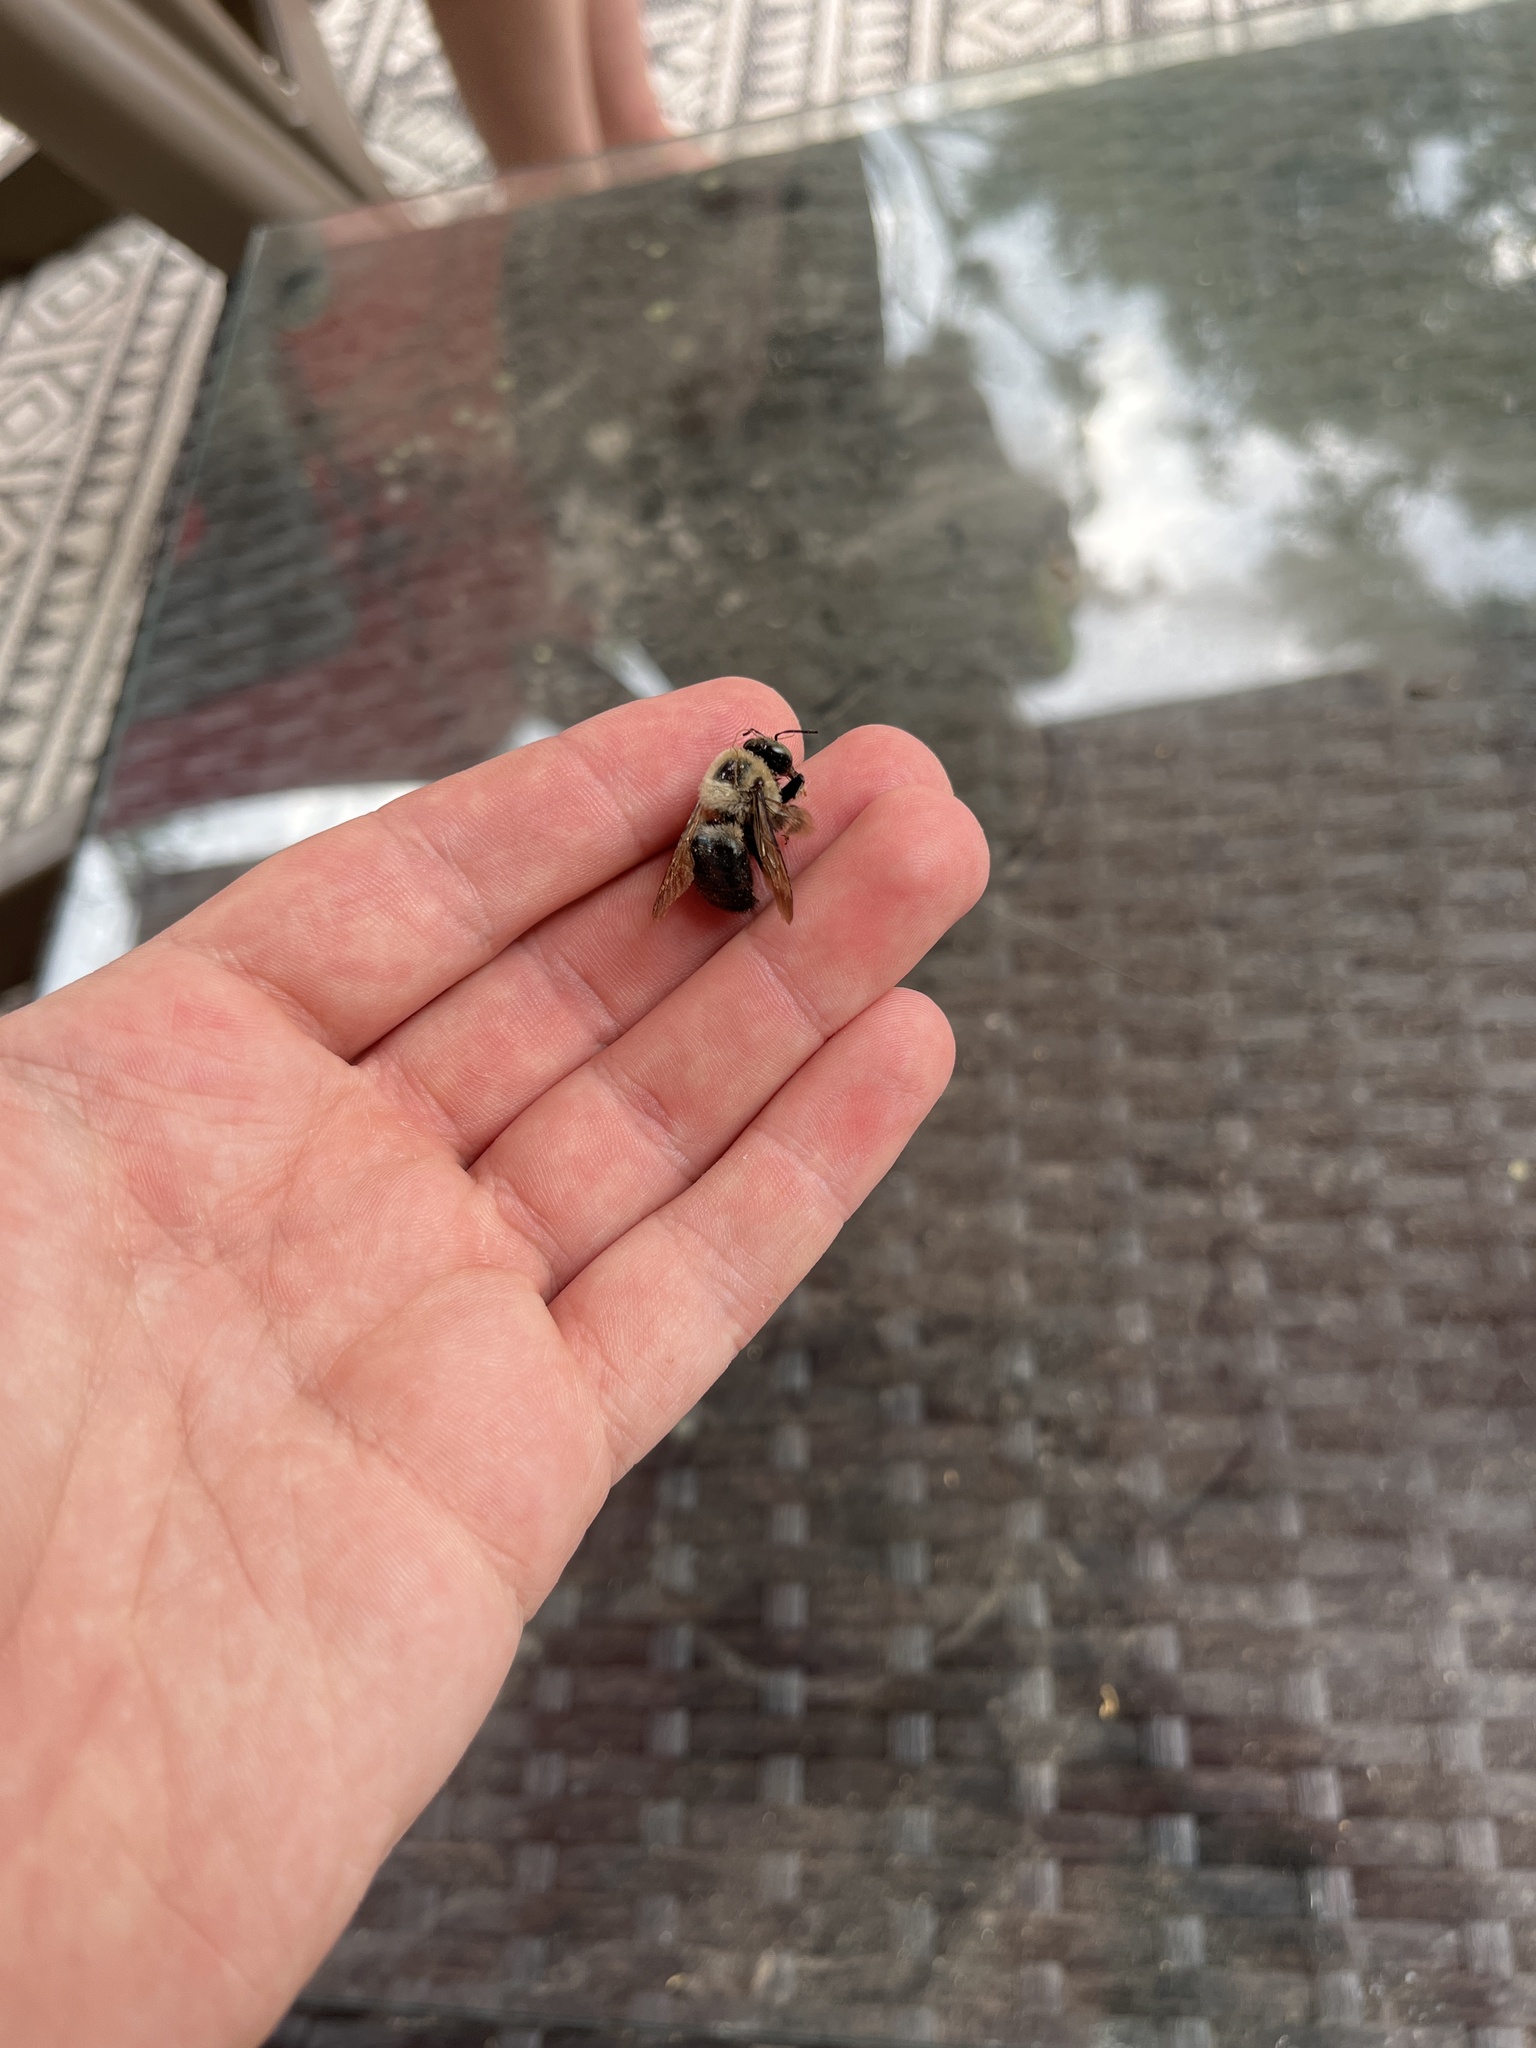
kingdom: Animalia
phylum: Arthropoda
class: Insecta
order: Hymenoptera
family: Apidae
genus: Xylocopa
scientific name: Xylocopa virginica
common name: Carpenter bee
